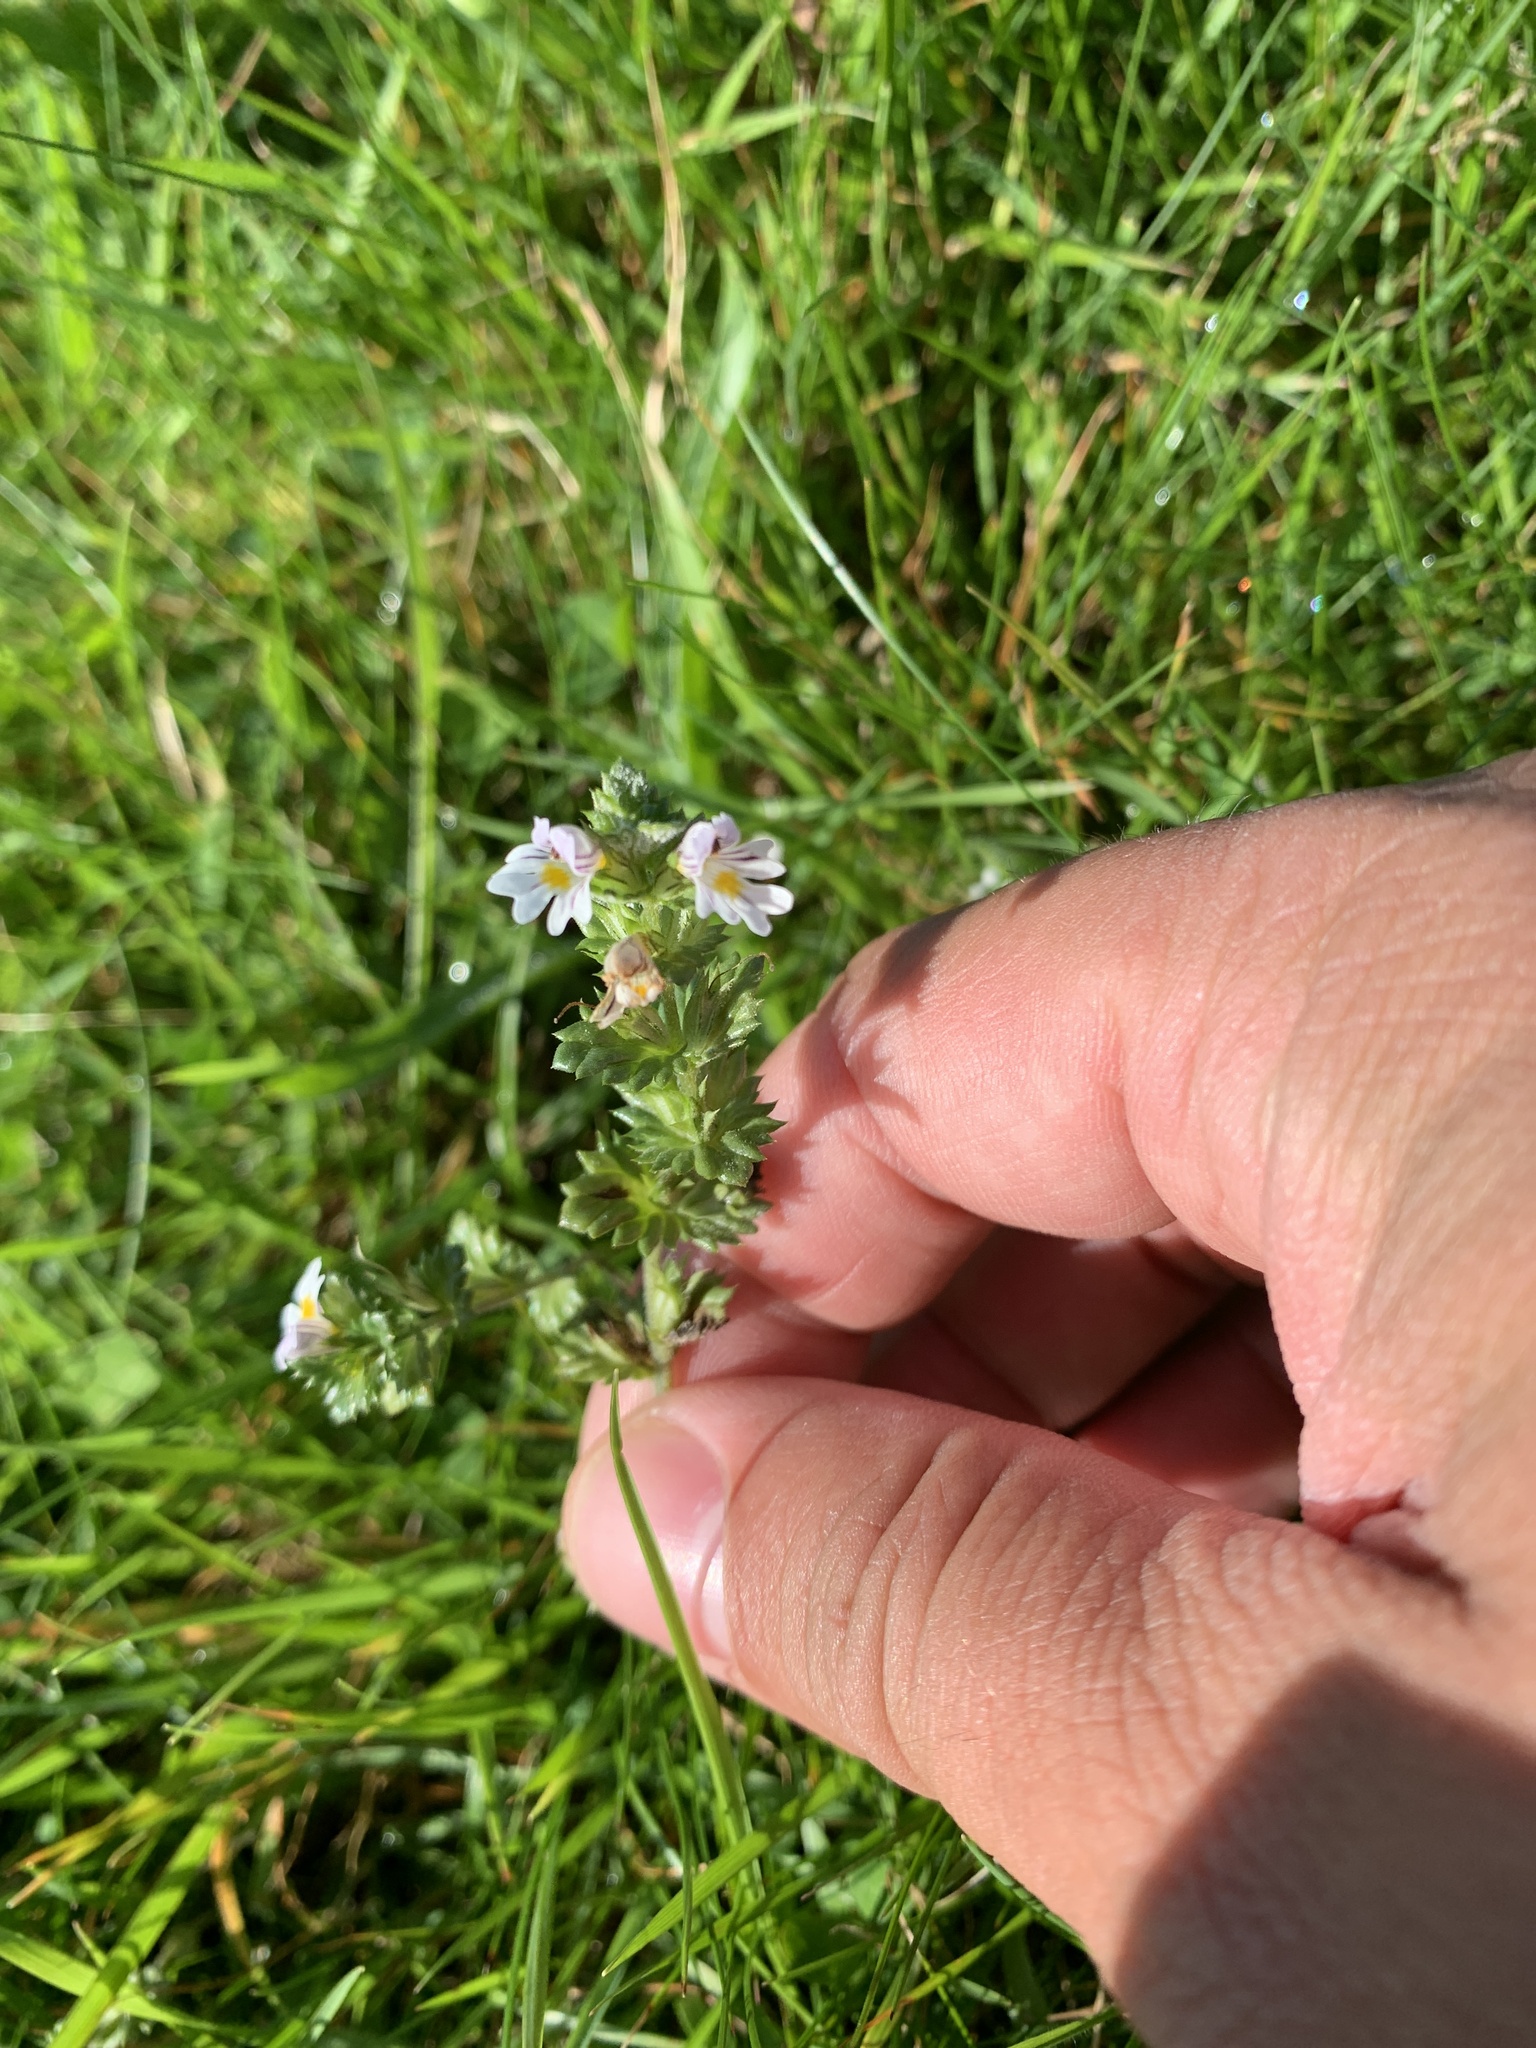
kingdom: Plantae
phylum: Tracheophyta
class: Magnoliopsida
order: Lamiales
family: Orobanchaceae
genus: Euphrasia
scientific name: Euphrasia nemorosa
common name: Common eyebright
